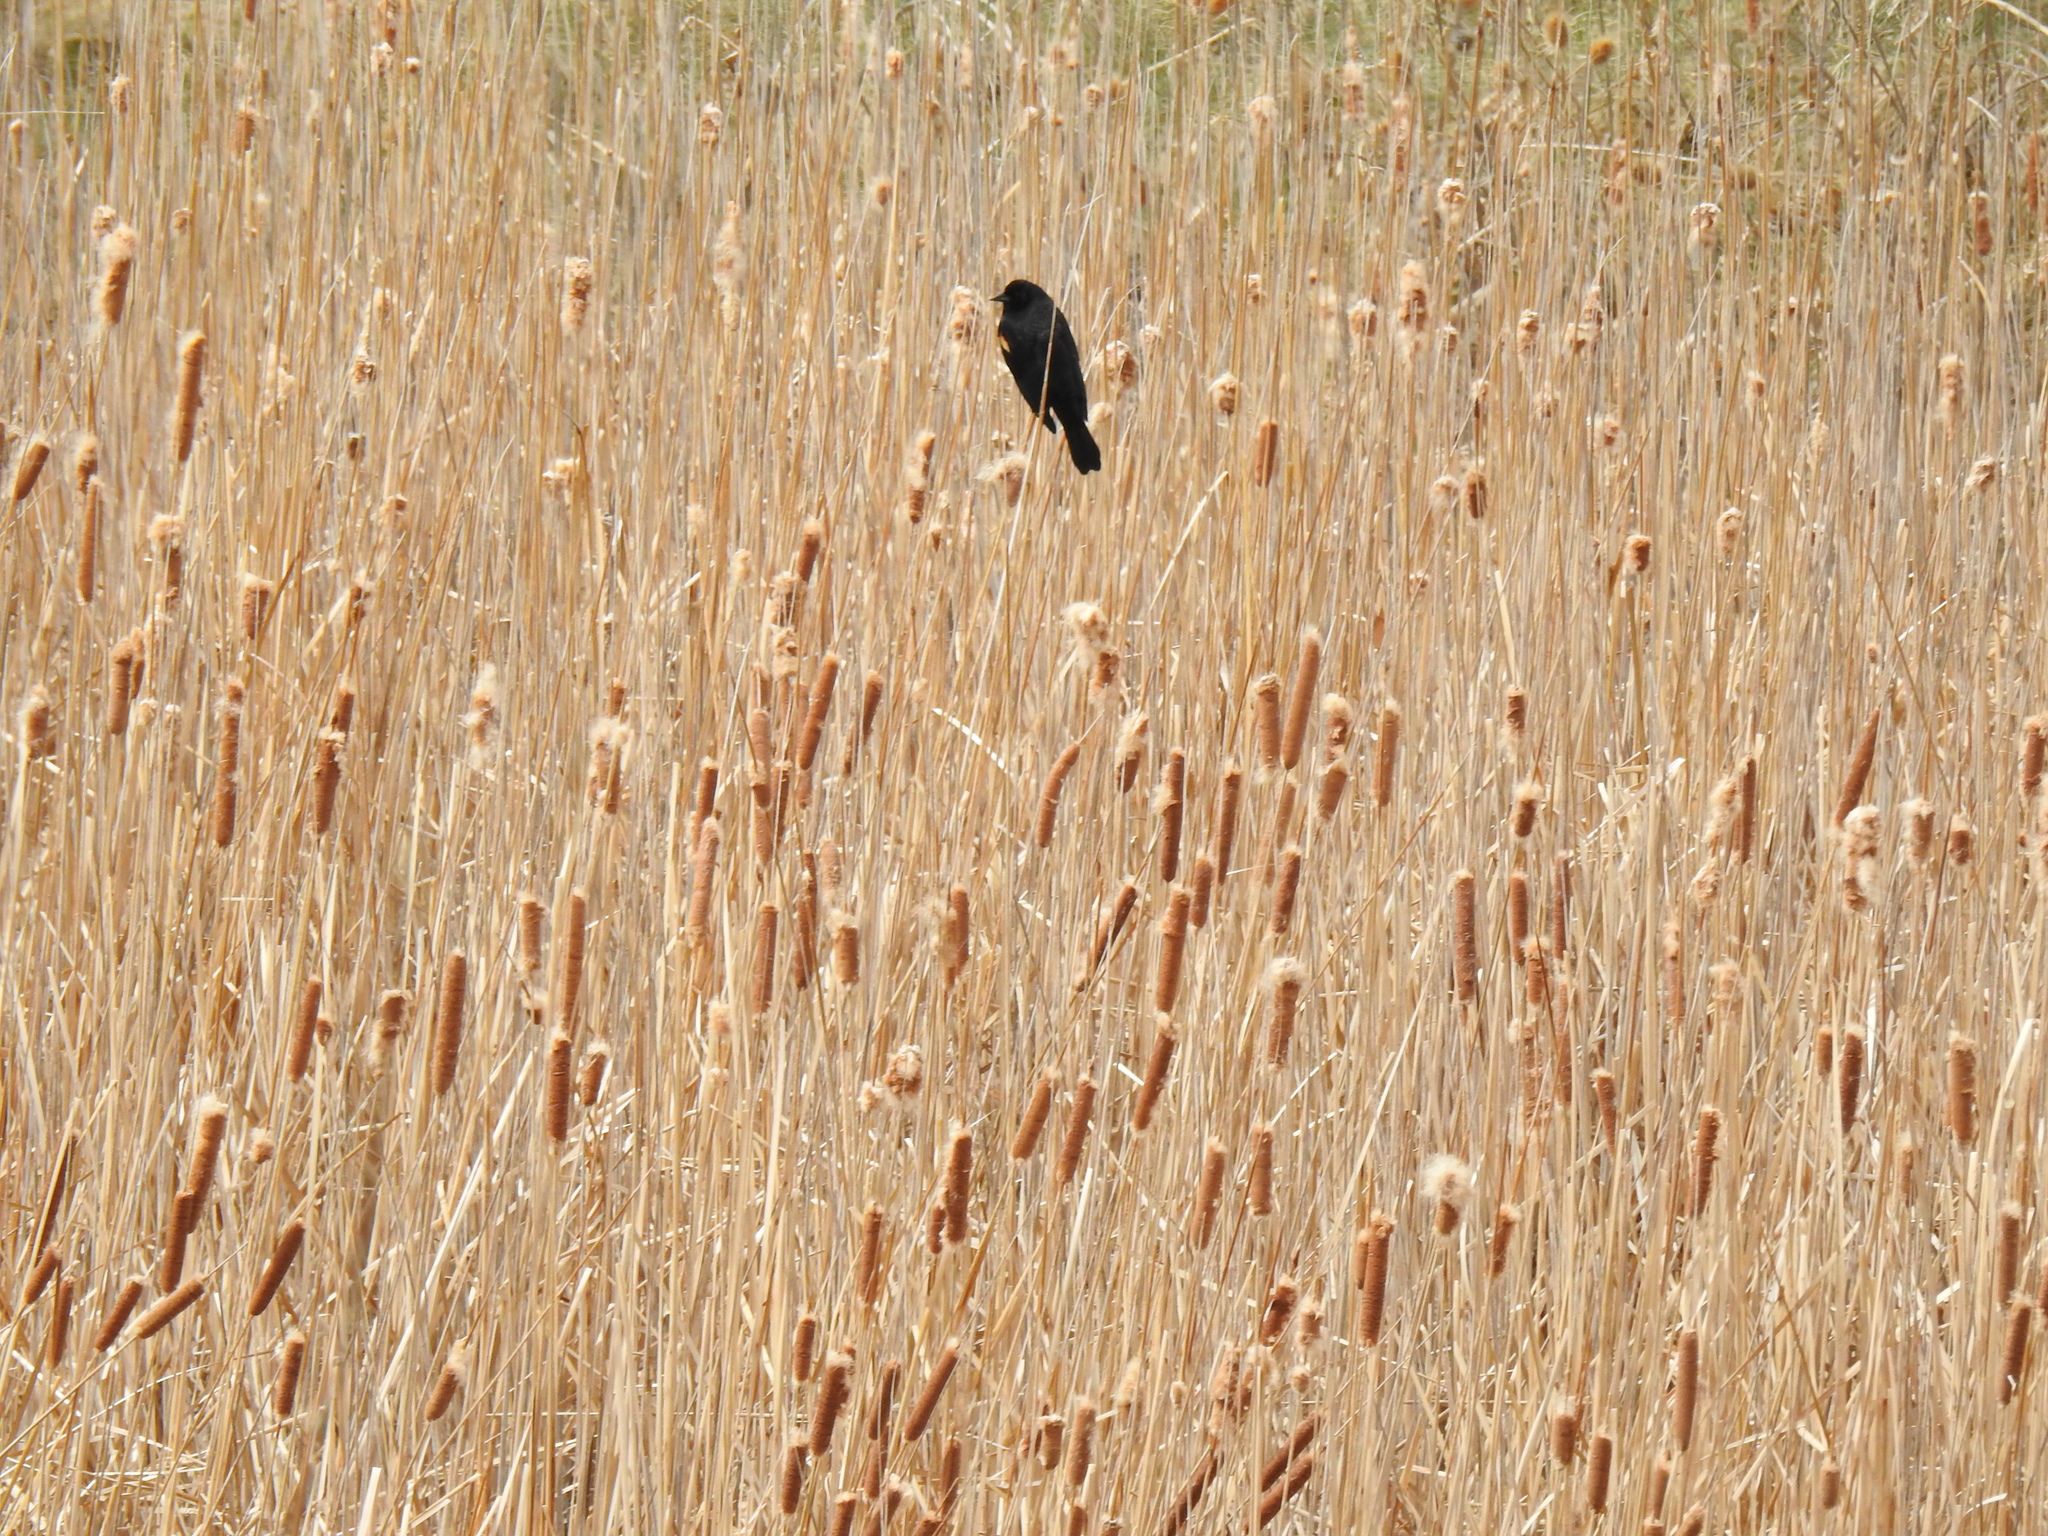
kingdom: Animalia
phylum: Chordata
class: Aves
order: Passeriformes
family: Icteridae
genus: Agelaius
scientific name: Agelaius phoeniceus
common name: Red-winged blackbird
